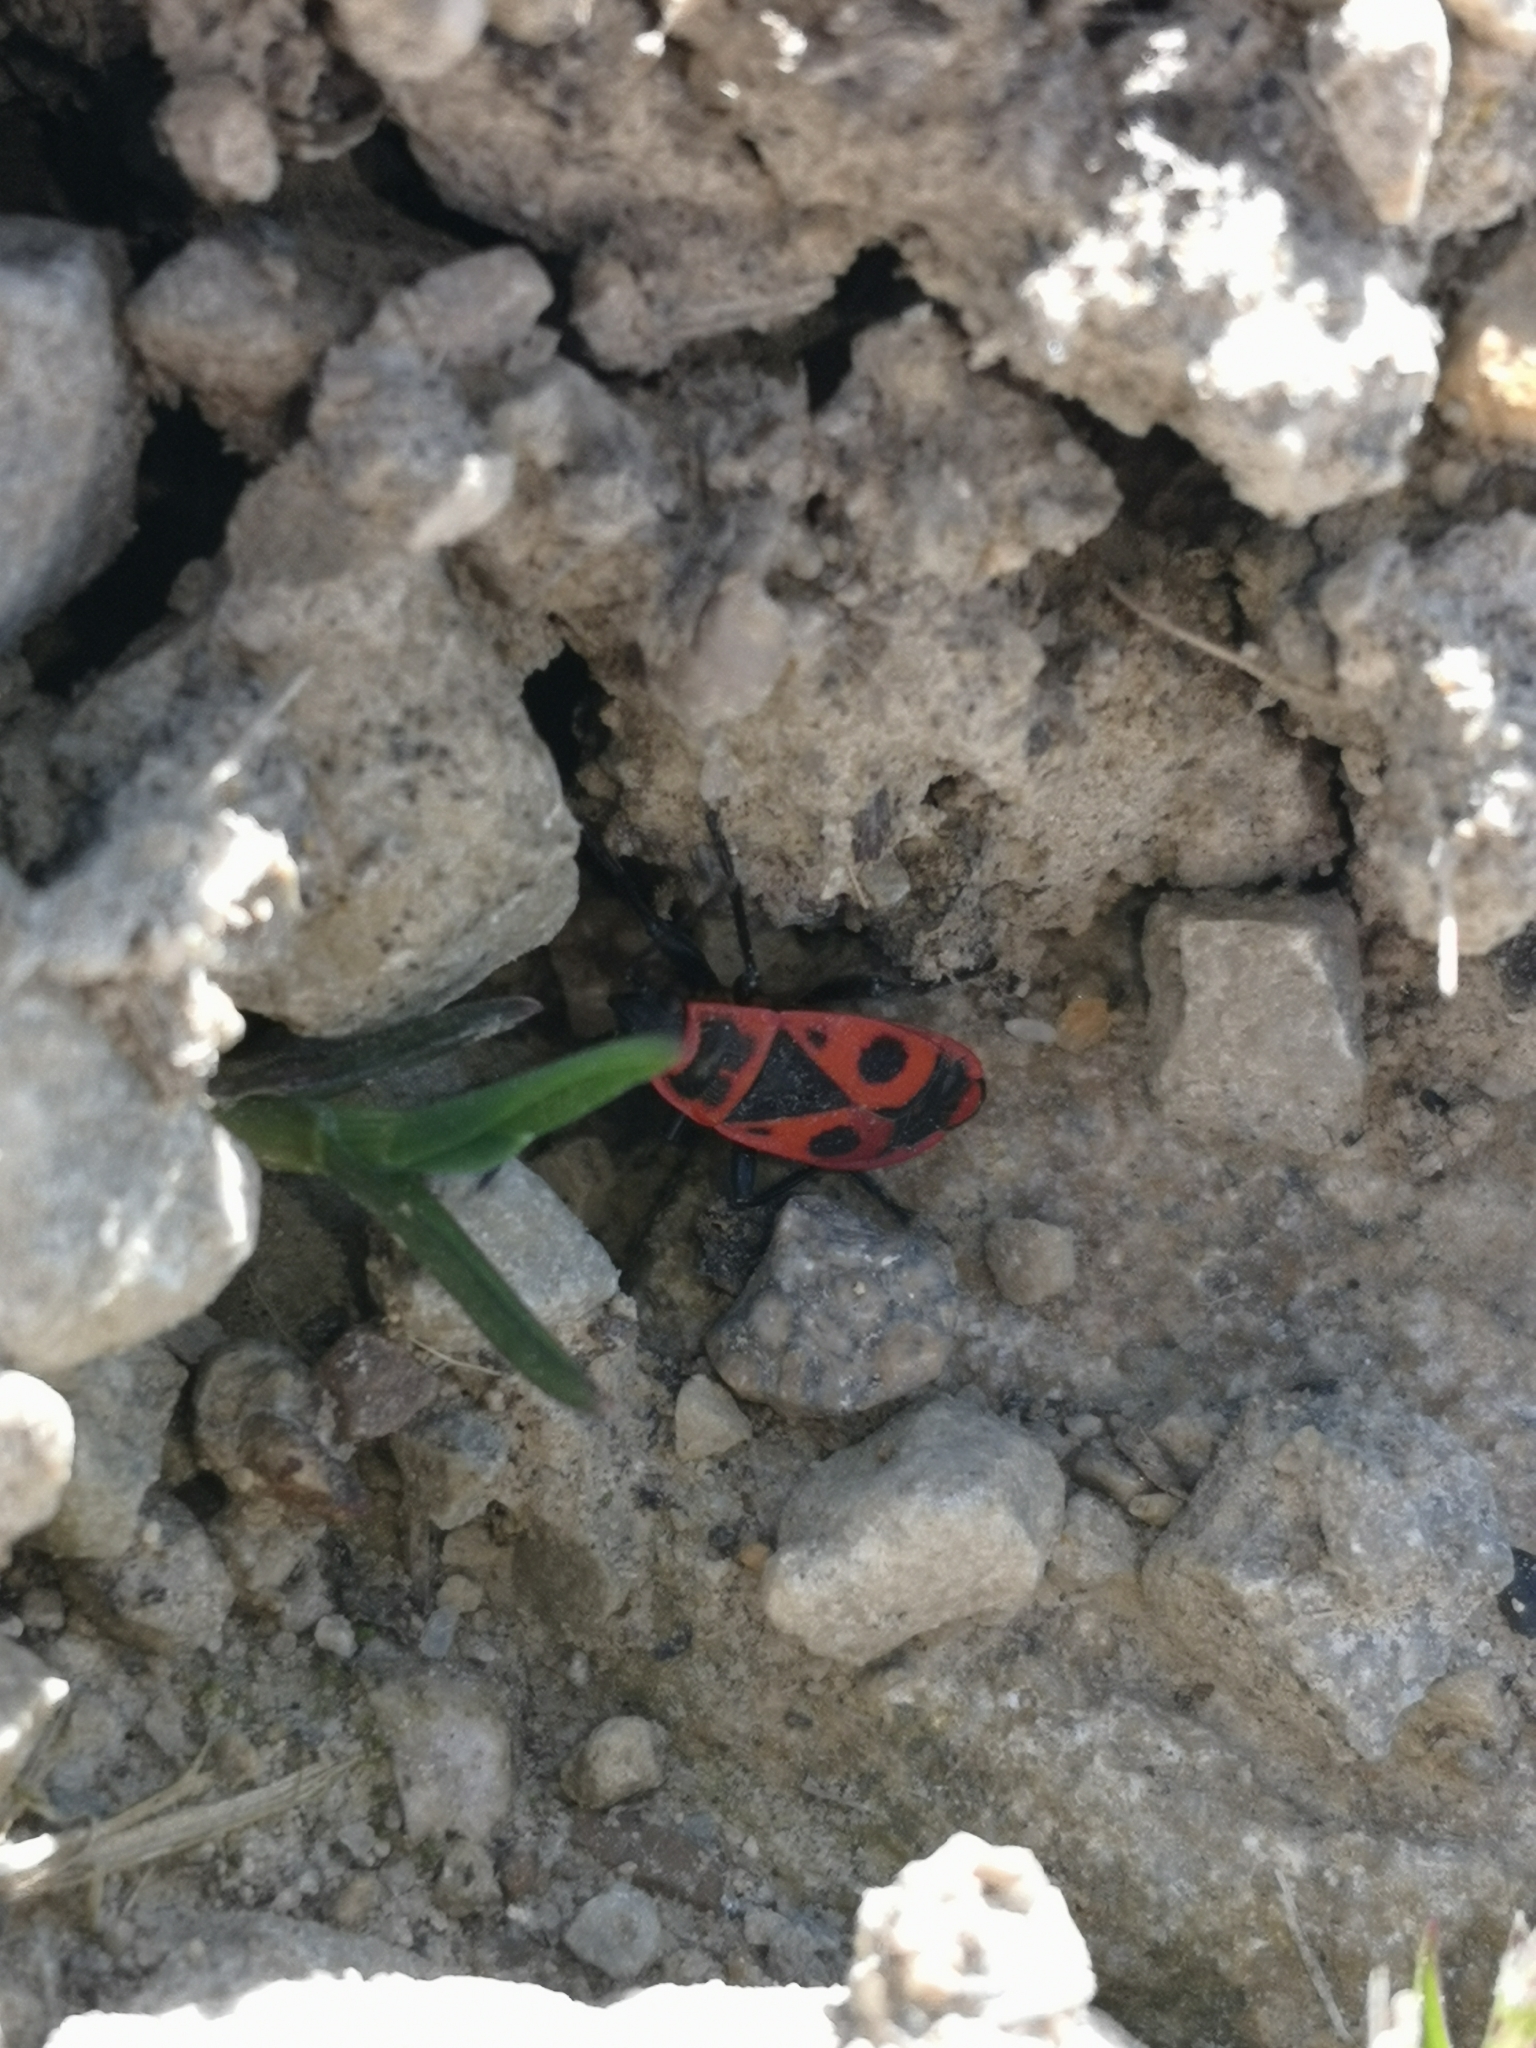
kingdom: Animalia
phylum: Arthropoda
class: Insecta
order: Hemiptera
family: Pyrrhocoridae
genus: Pyrrhocoris
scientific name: Pyrrhocoris apterus
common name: Firebug
